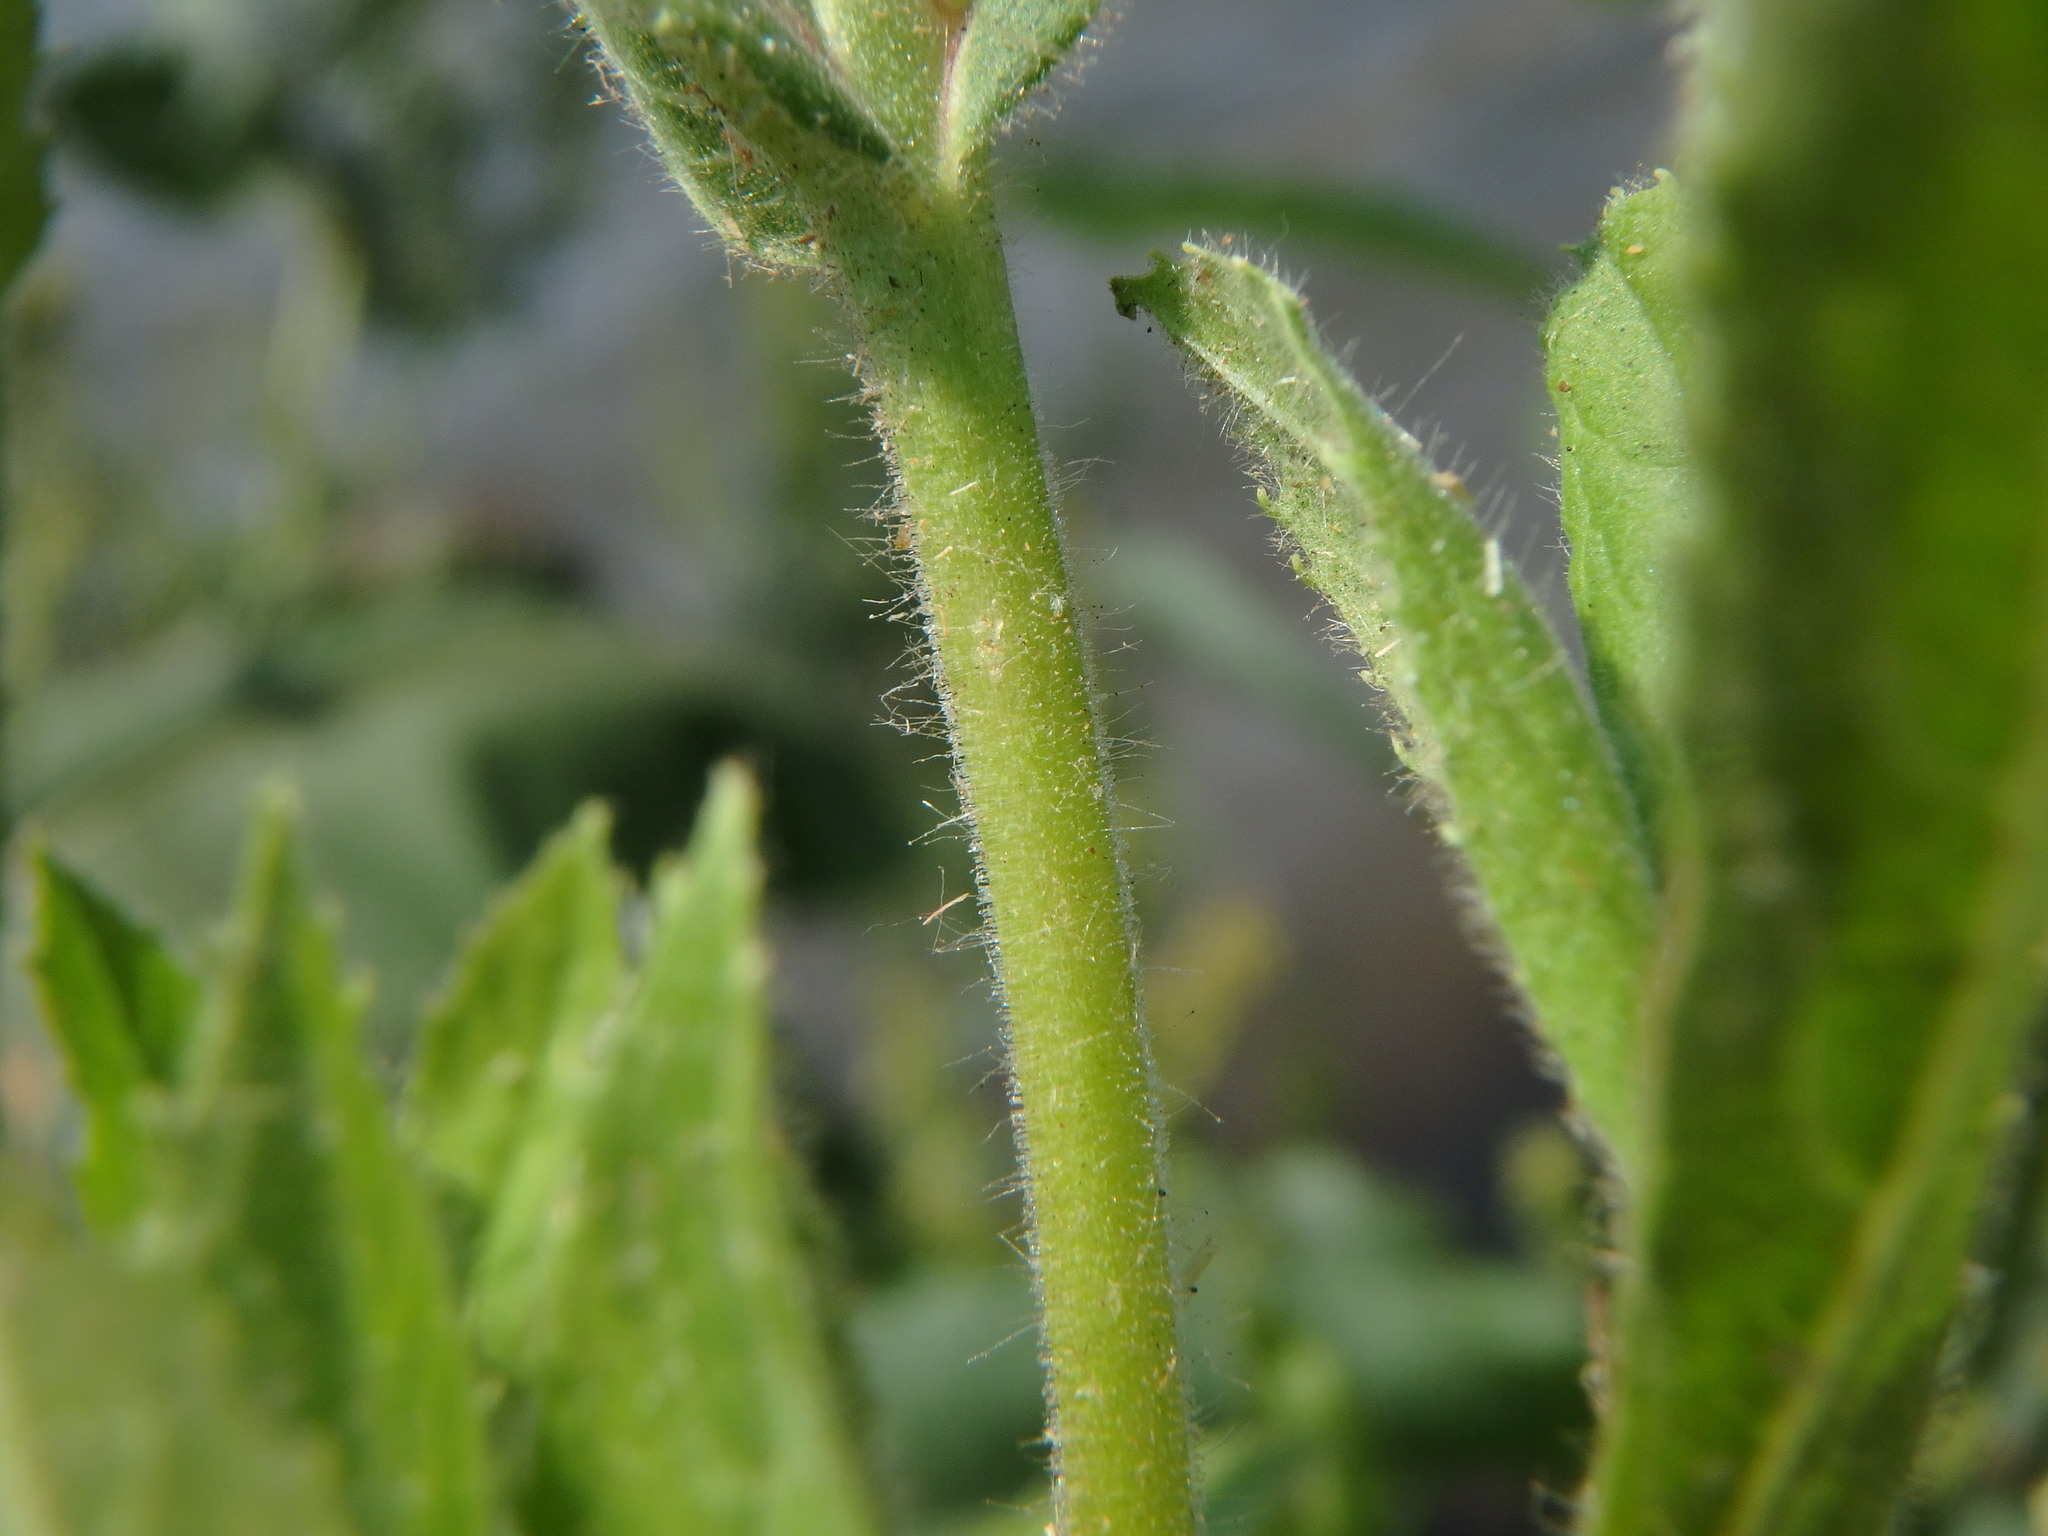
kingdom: Plantae
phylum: Tracheophyta
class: Magnoliopsida
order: Myrtales
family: Onagraceae
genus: Epilobium
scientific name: Epilobium hirsutum
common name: Great willowherb
